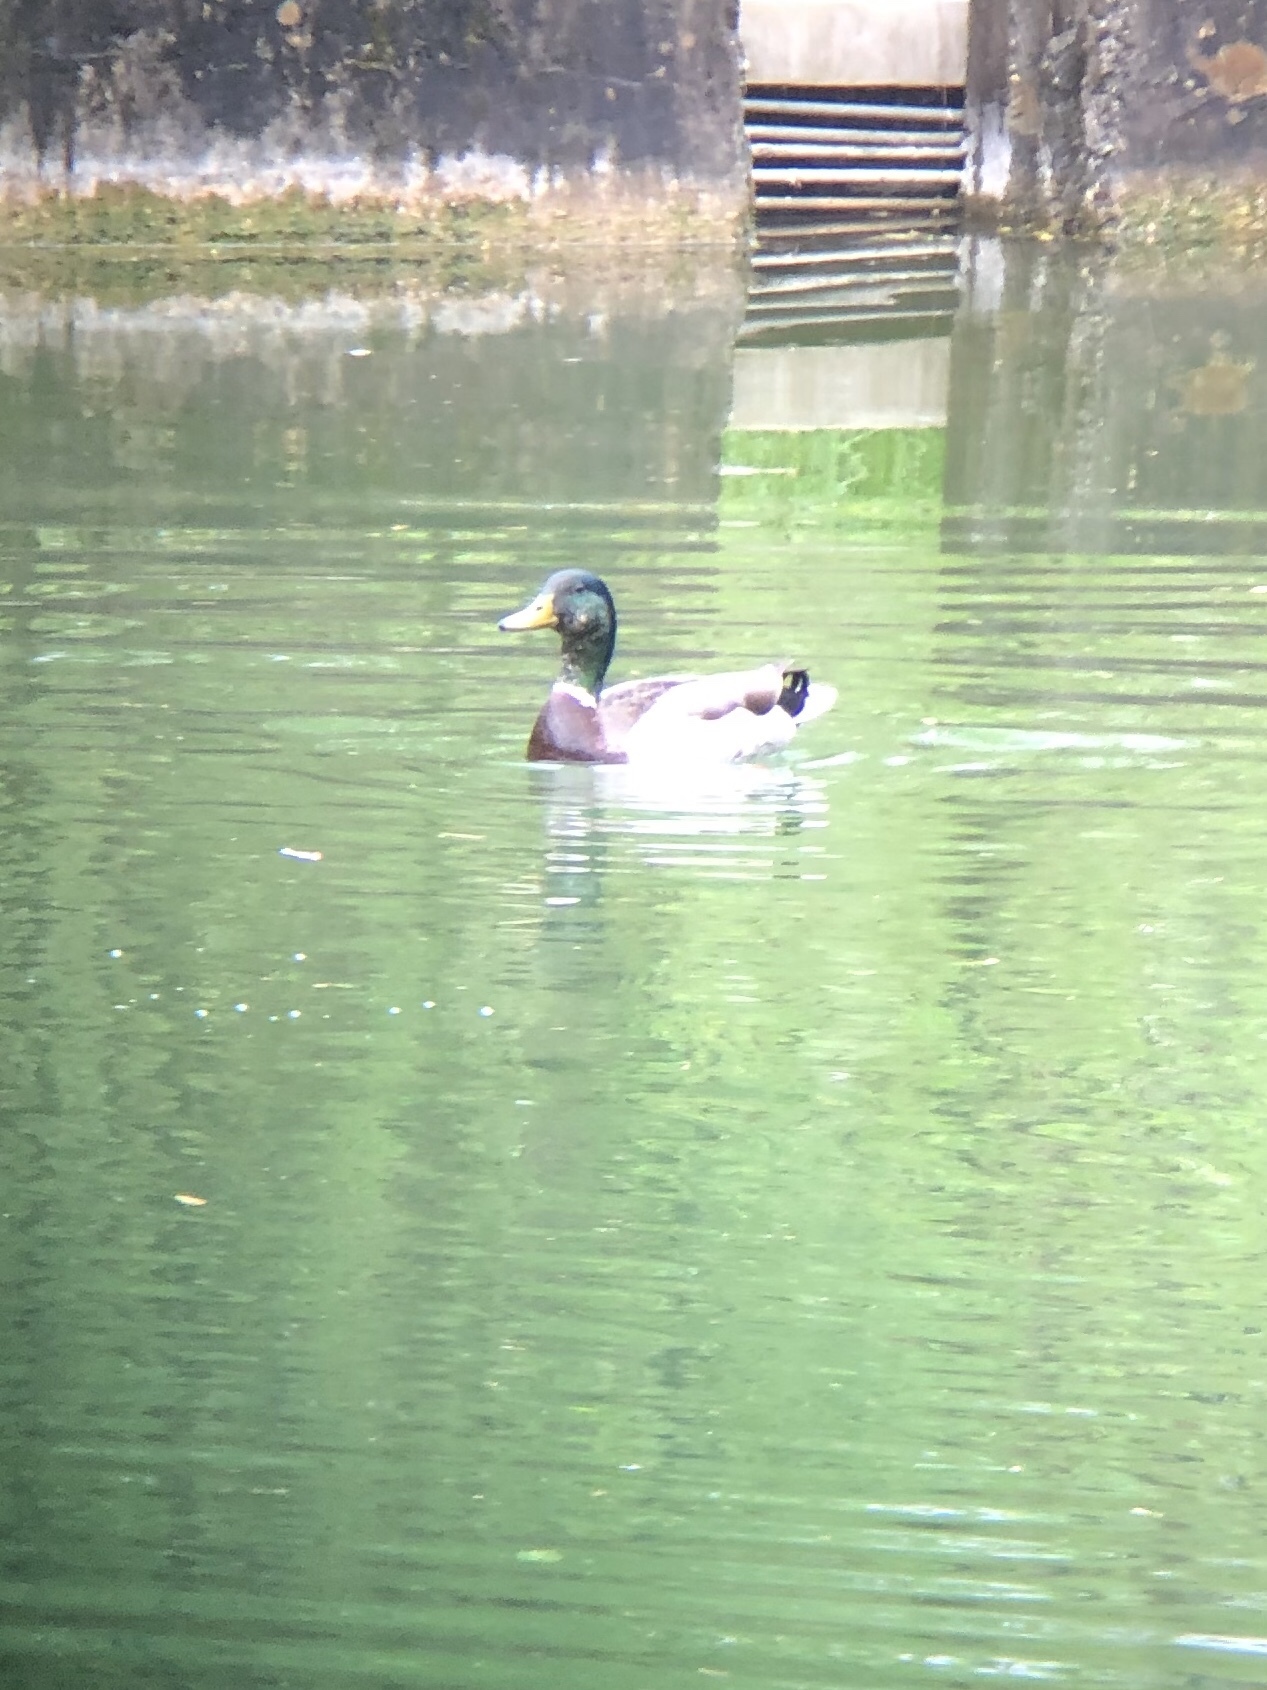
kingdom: Animalia
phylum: Chordata
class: Aves
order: Anseriformes
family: Anatidae
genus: Anas
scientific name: Anas platyrhynchos
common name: Mallard
